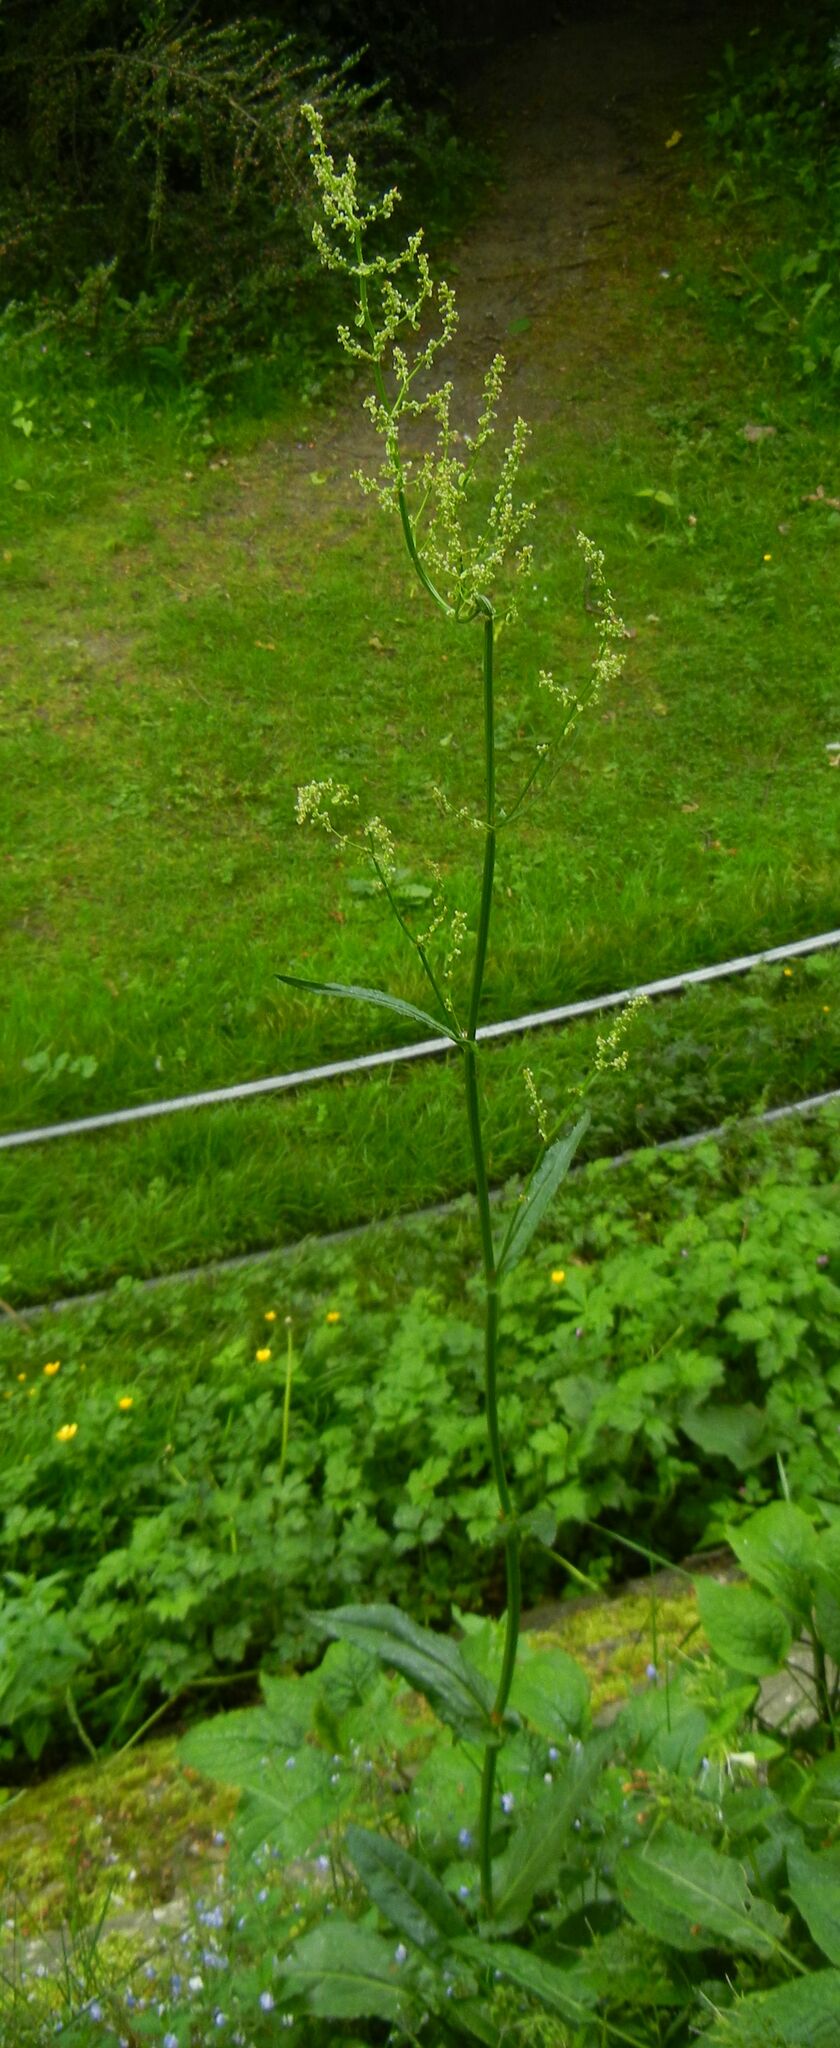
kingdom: Plantae
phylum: Tracheophyta
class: Magnoliopsida
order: Caryophyllales
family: Polygonaceae
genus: Rumex
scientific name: Rumex acetosa
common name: Garden sorrel
